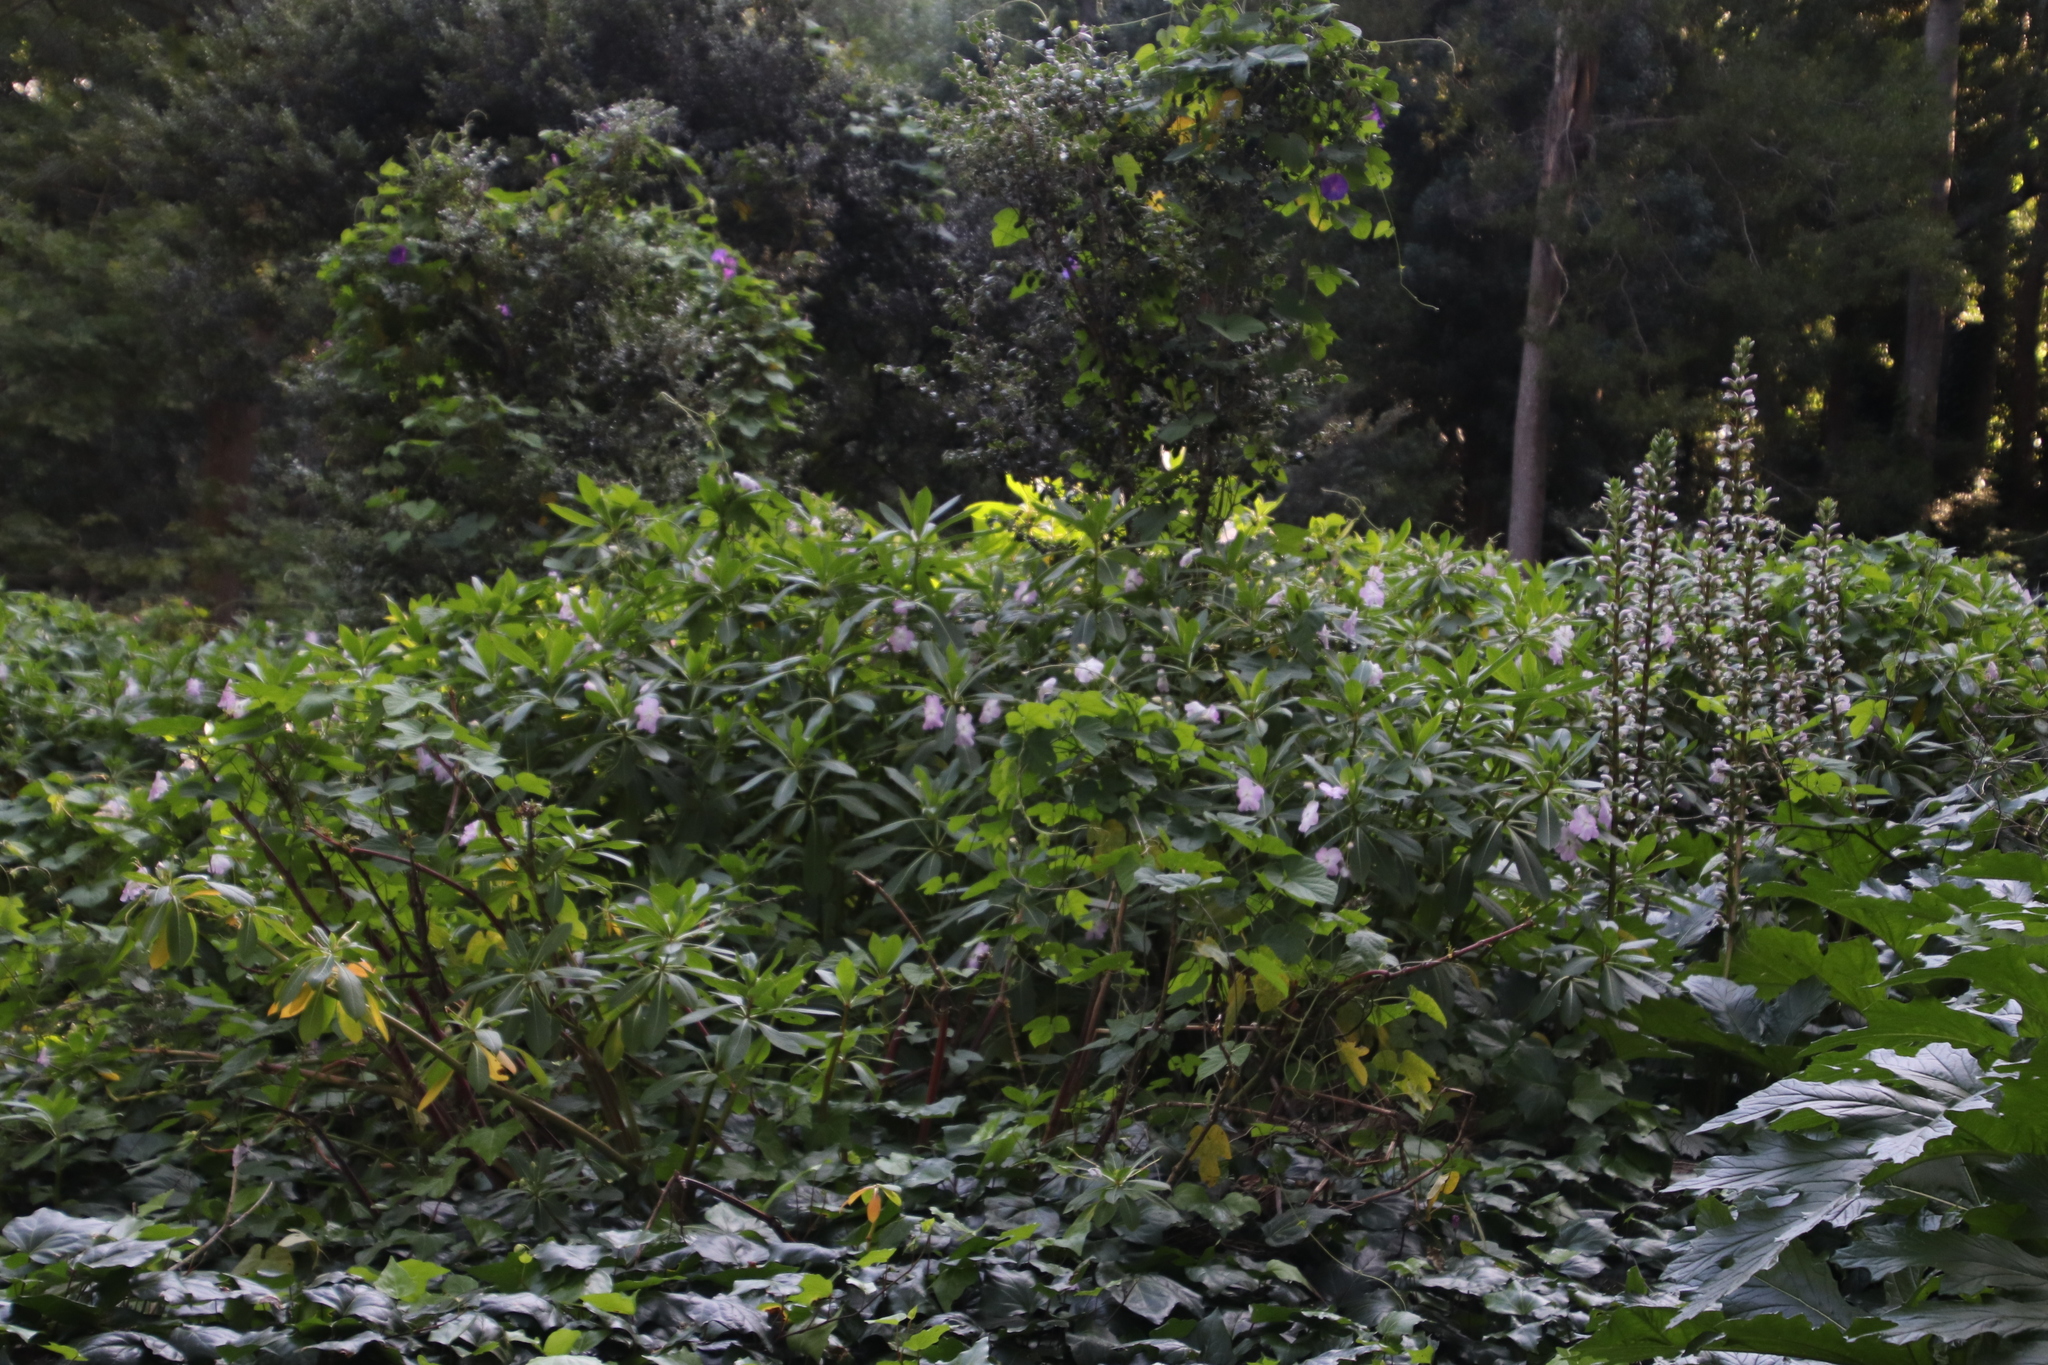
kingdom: Plantae
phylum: Tracheophyta
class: Magnoliopsida
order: Ericales
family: Balsaminaceae
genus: Impatiens
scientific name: Impatiens sodenii
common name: Oliver's touch-me-not
